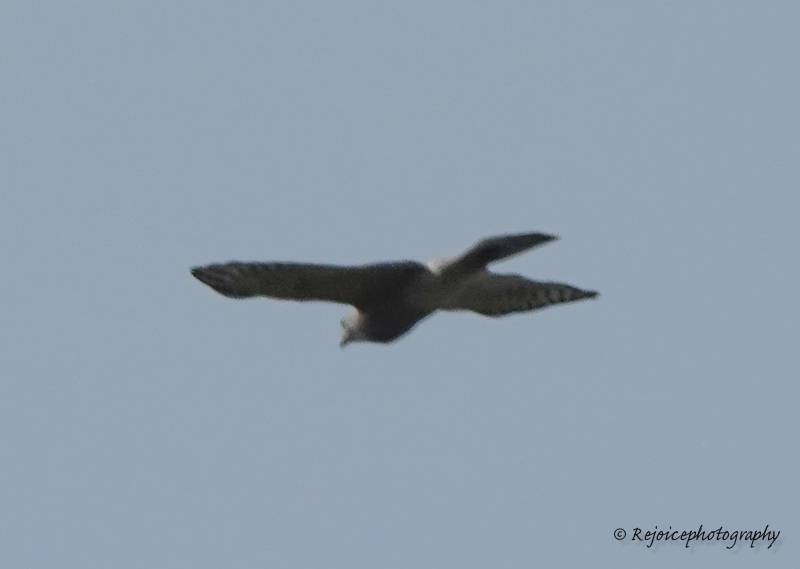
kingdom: Animalia
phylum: Chordata
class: Aves
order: Accipitriformes
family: Accipitridae
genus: Accipiter
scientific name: Accipiter badius
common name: Shikra
